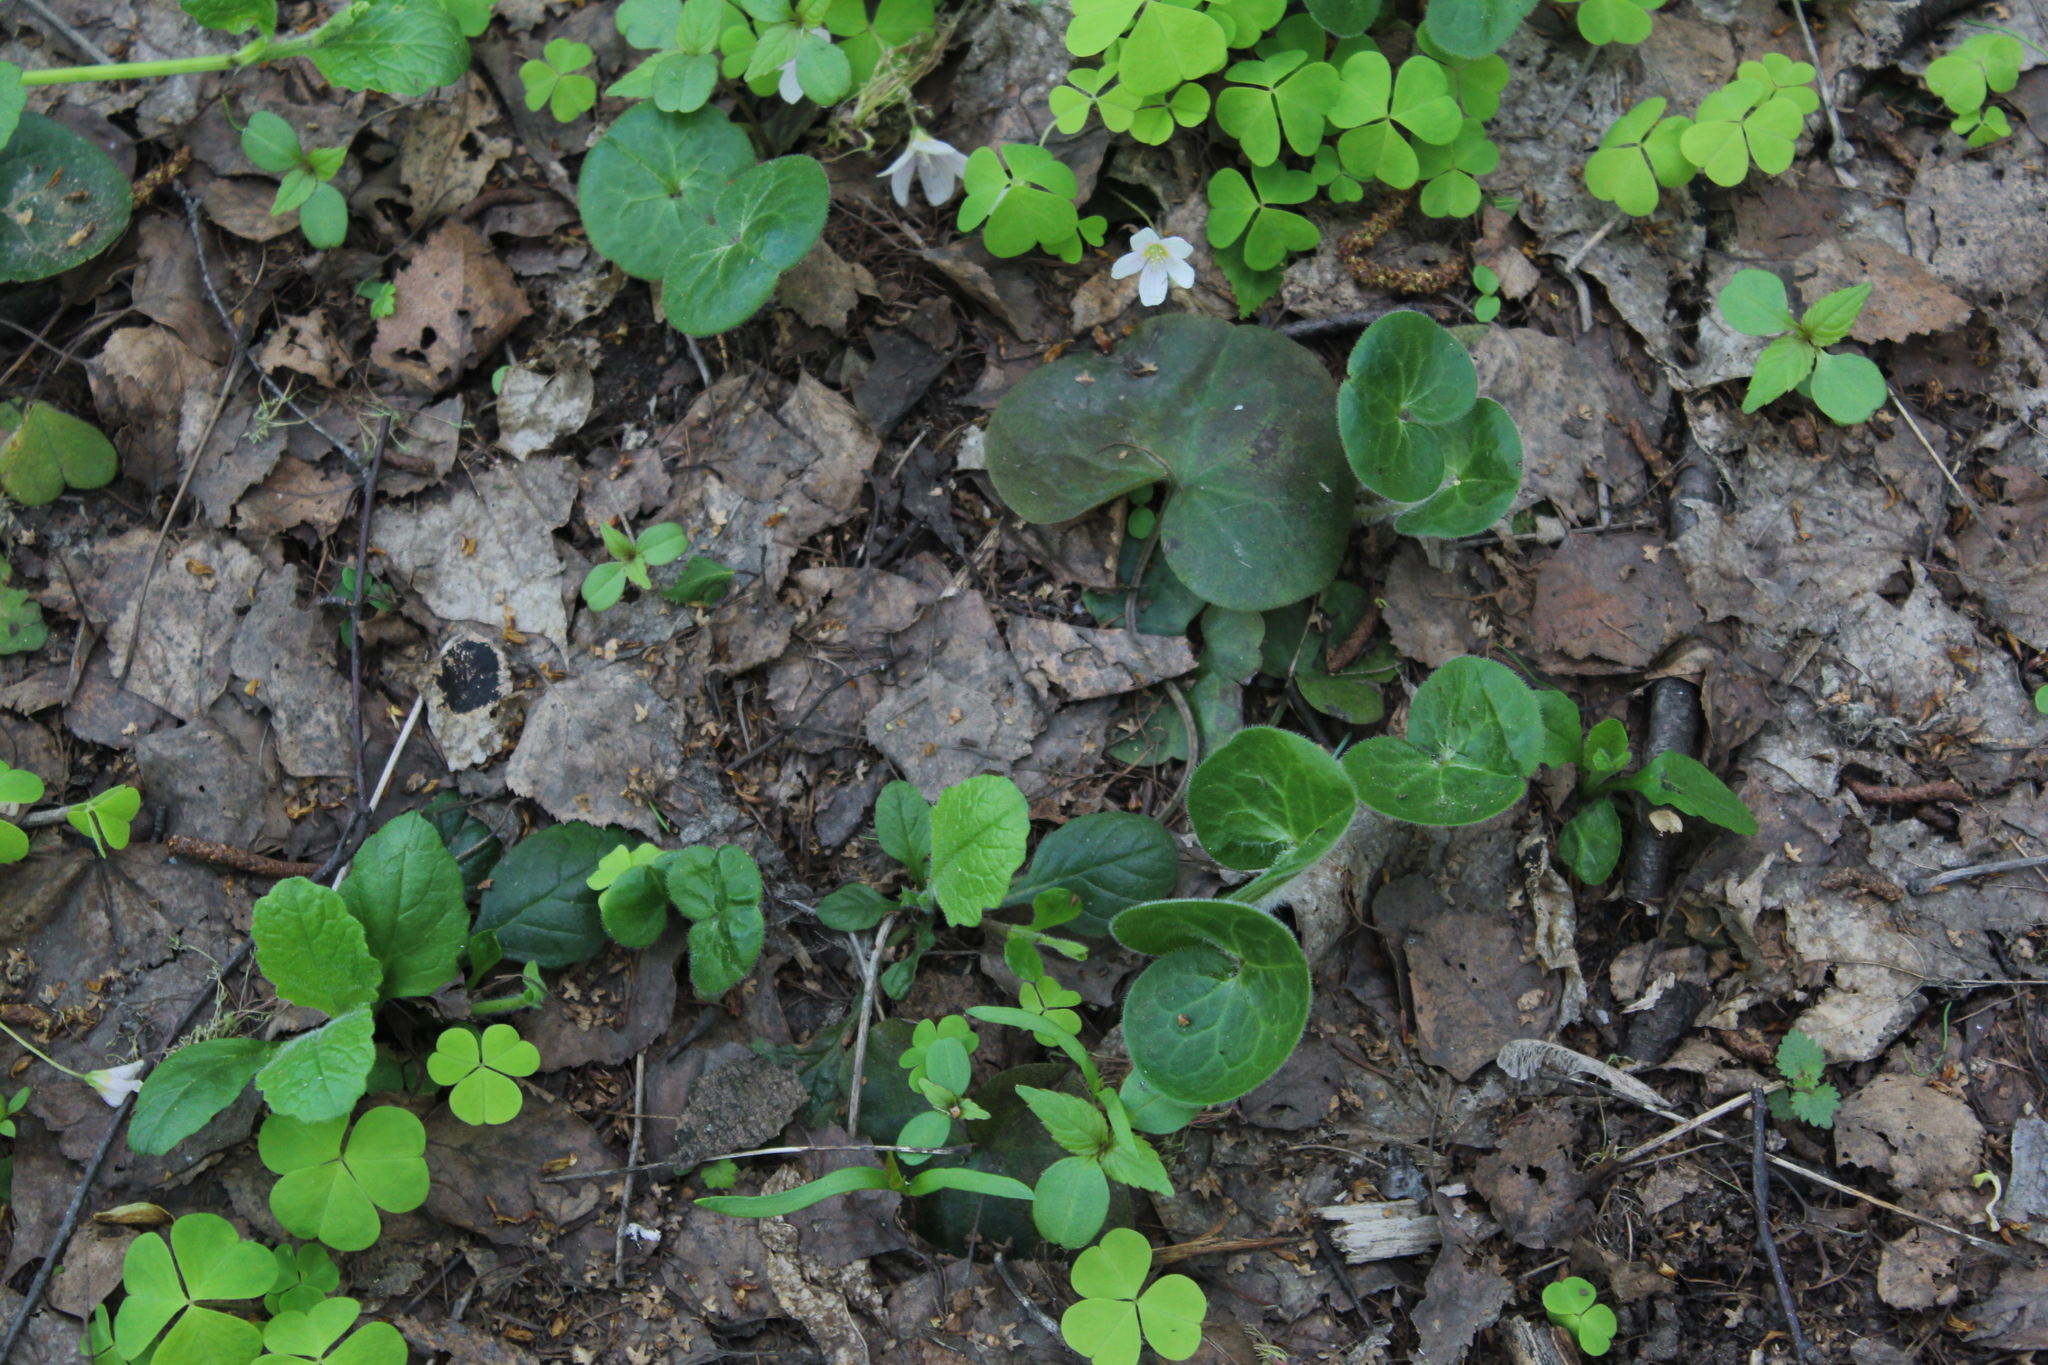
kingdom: Plantae
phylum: Tracheophyta
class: Magnoliopsida
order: Piperales
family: Aristolochiaceae
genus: Asarum
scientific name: Asarum europaeum
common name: Asarabacca
